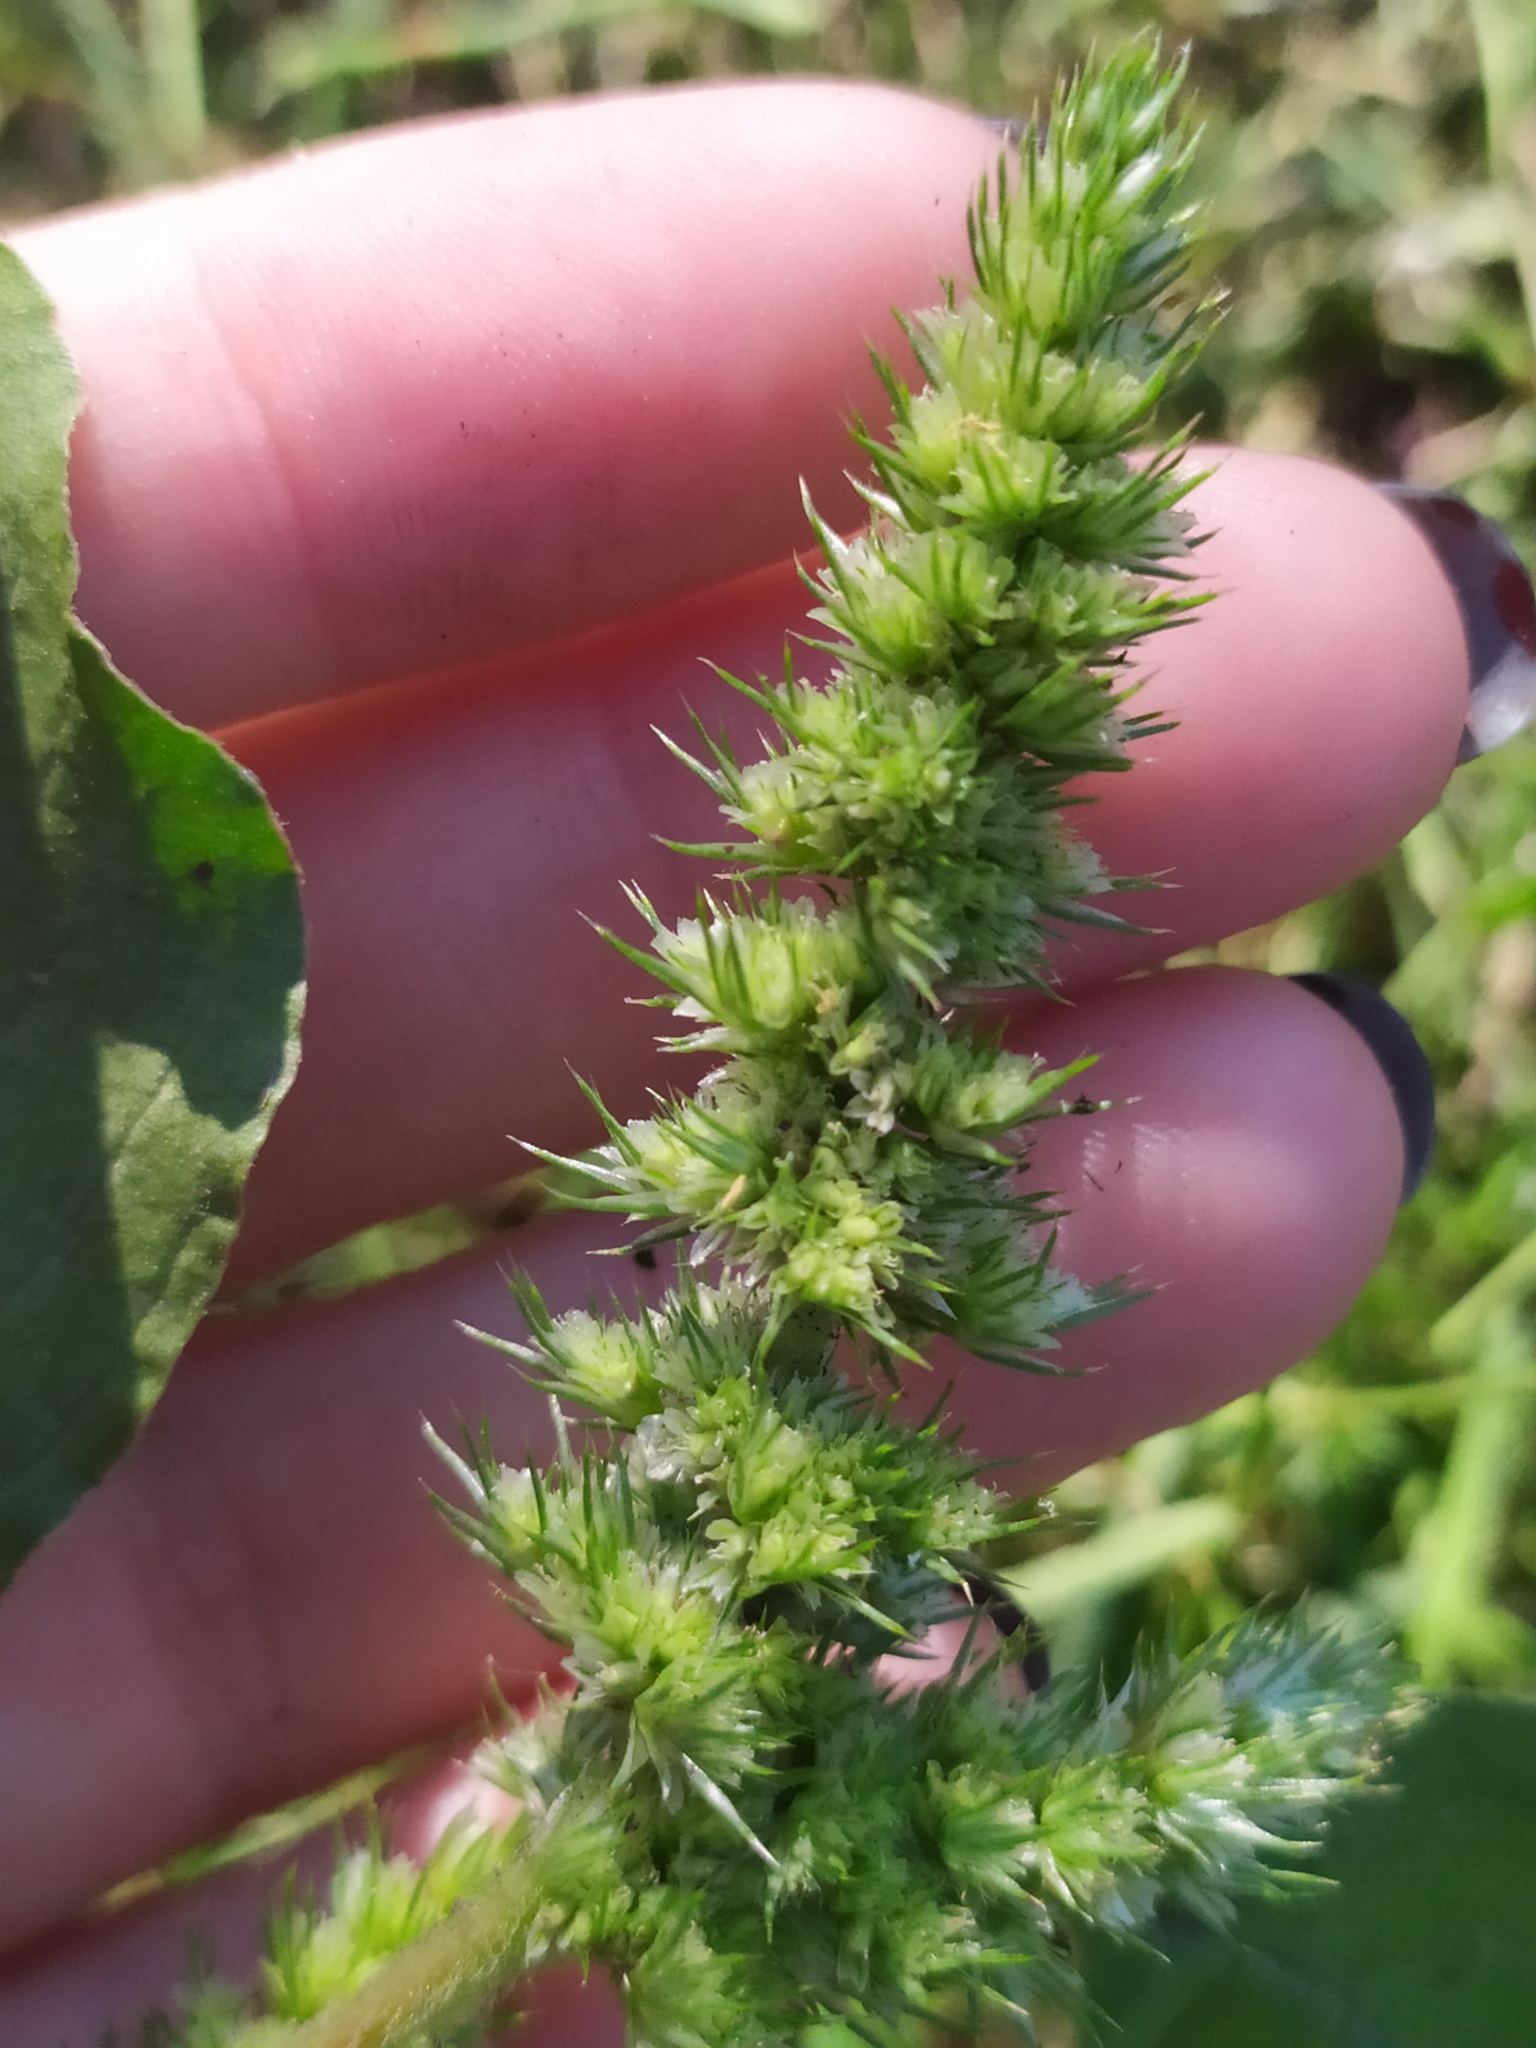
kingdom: Plantae
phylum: Tracheophyta
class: Magnoliopsida
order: Caryophyllales
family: Amaranthaceae
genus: Amaranthus
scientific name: Amaranthus retroflexus
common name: Redroot amaranth
